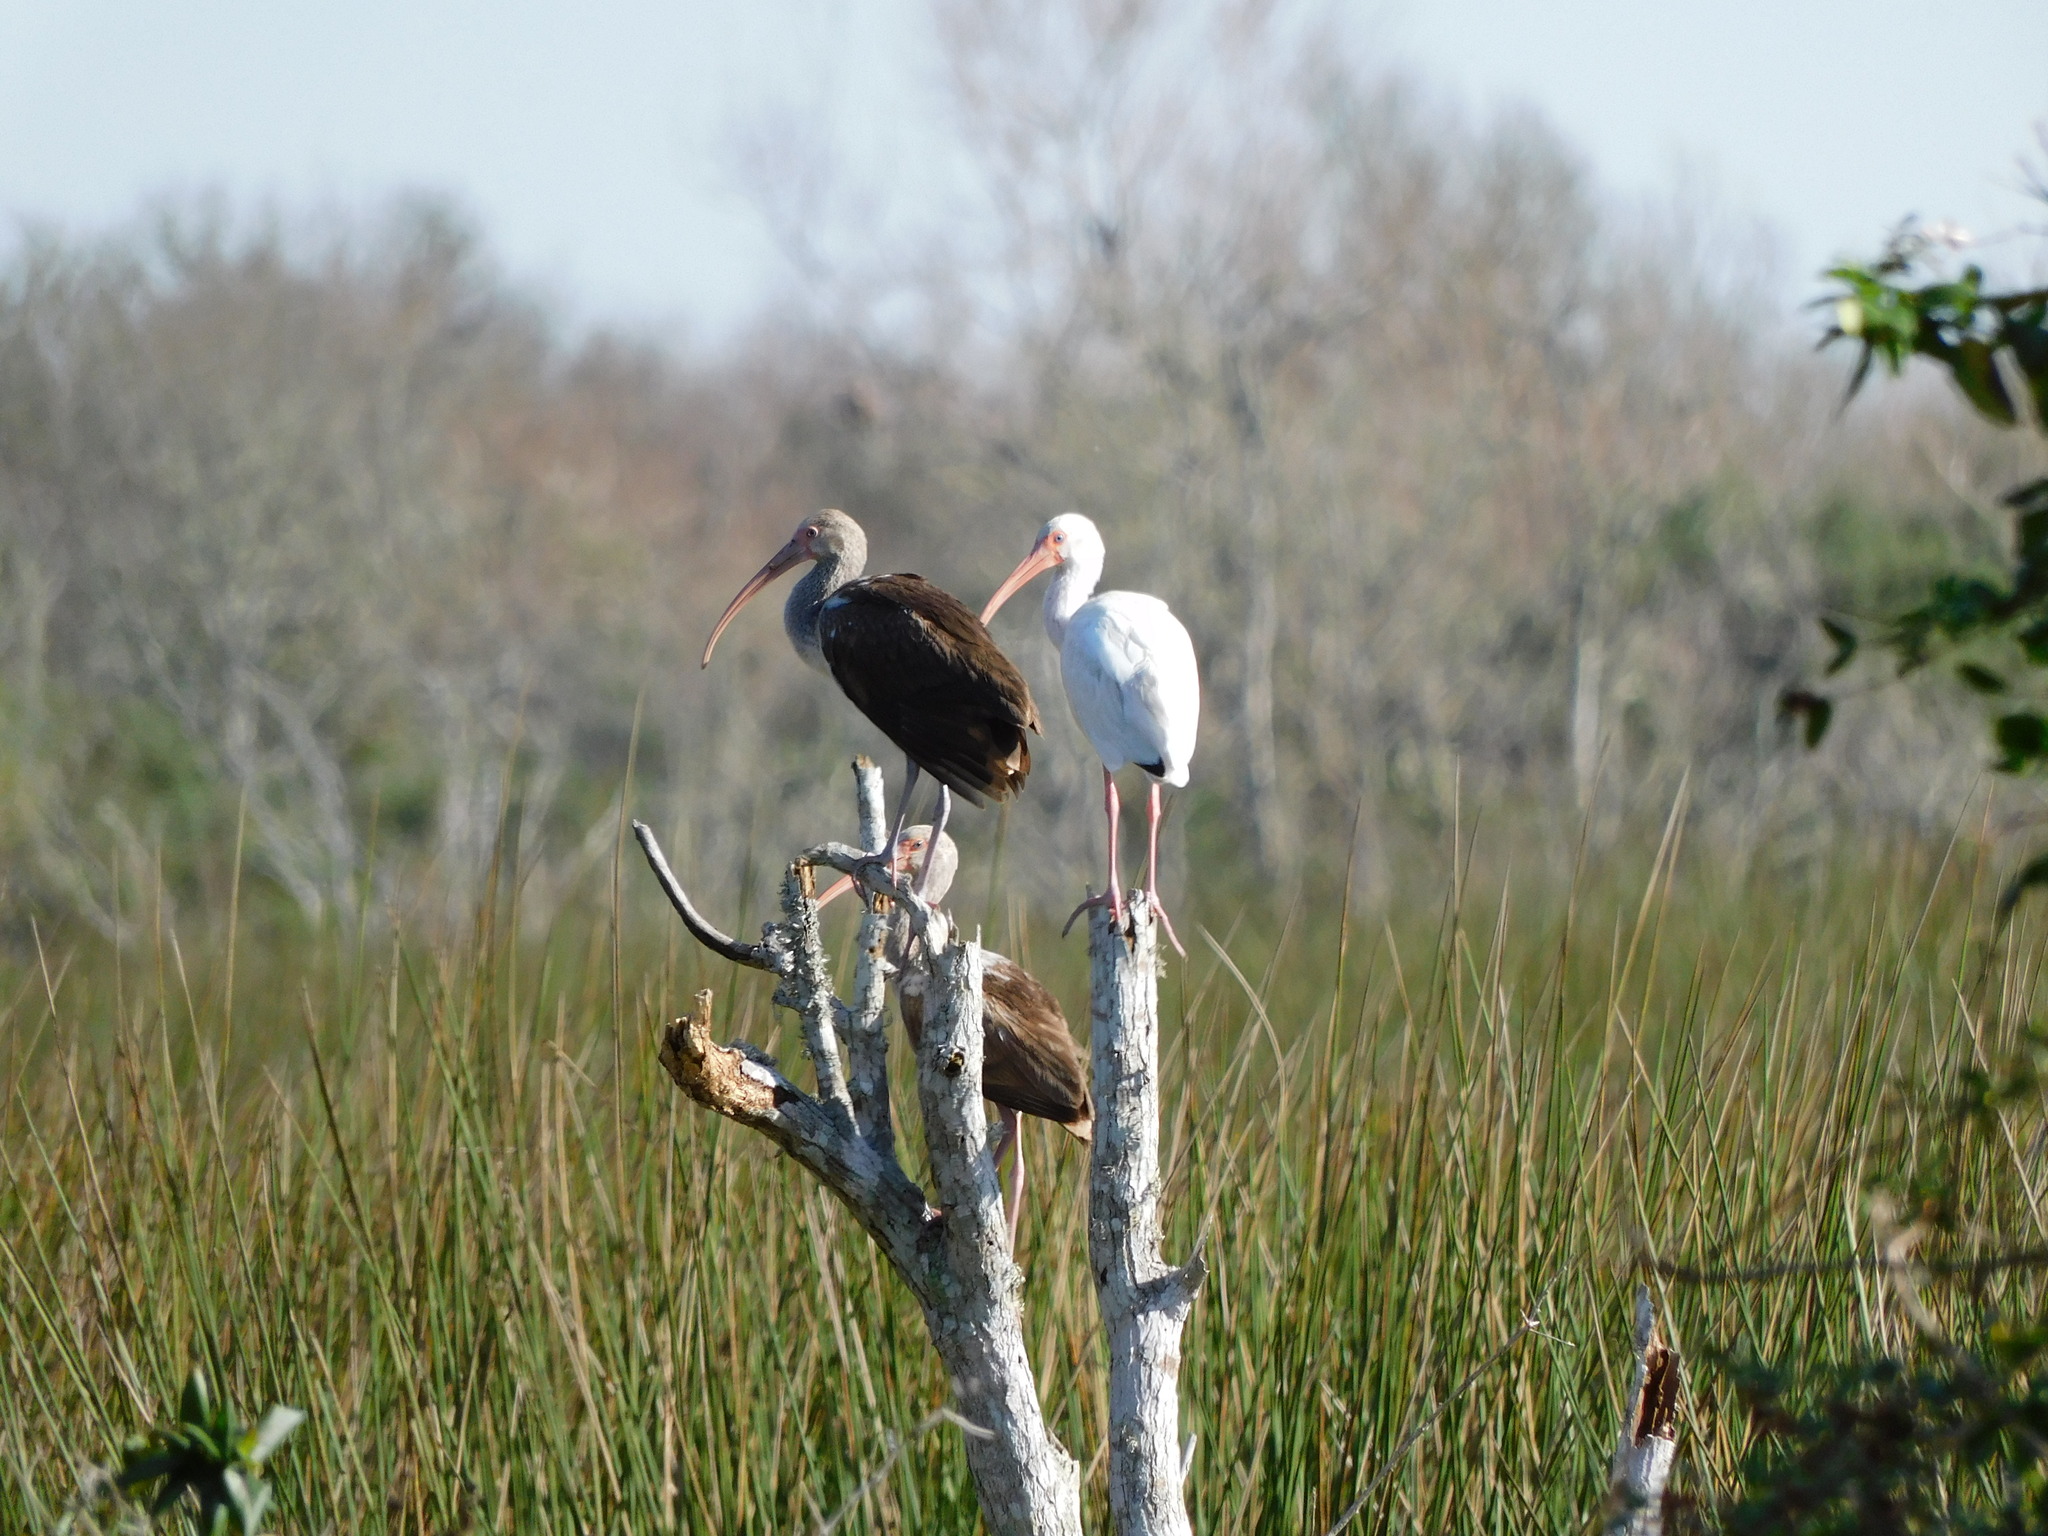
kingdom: Animalia
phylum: Chordata
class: Aves
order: Pelecaniformes
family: Threskiornithidae
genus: Eudocimus
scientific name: Eudocimus albus
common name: White ibis
